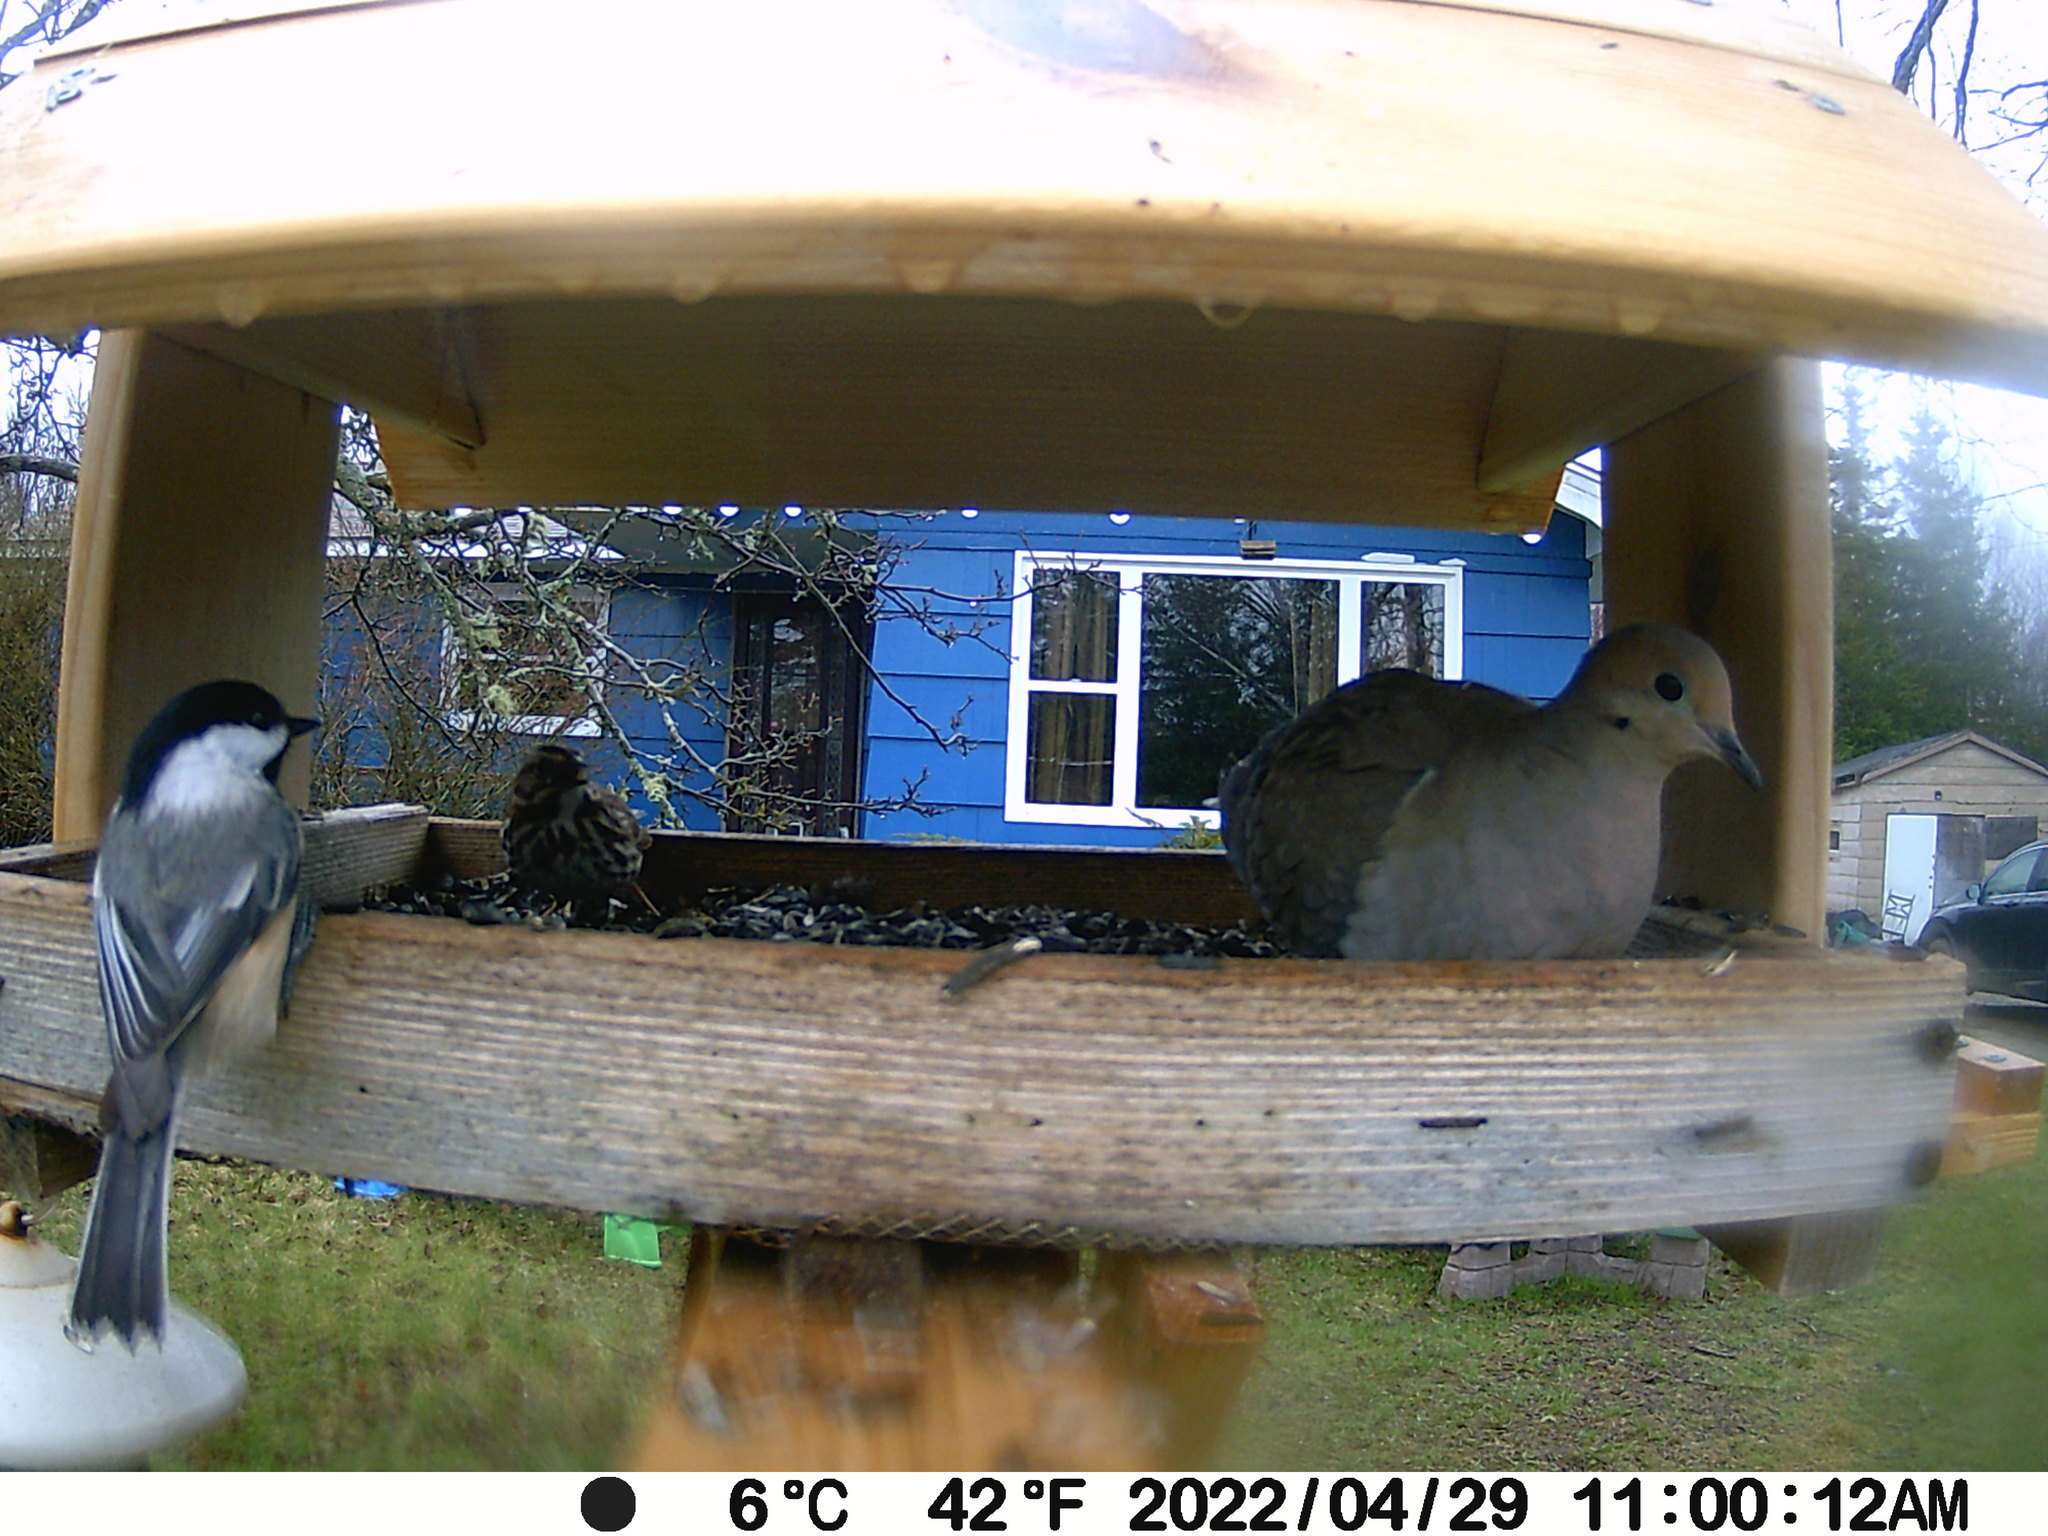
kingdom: Animalia
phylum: Chordata
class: Aves
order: Passeriformes
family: Paridae
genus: Poecile
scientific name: Poecile atricapillus
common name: Black-capped chickadee
